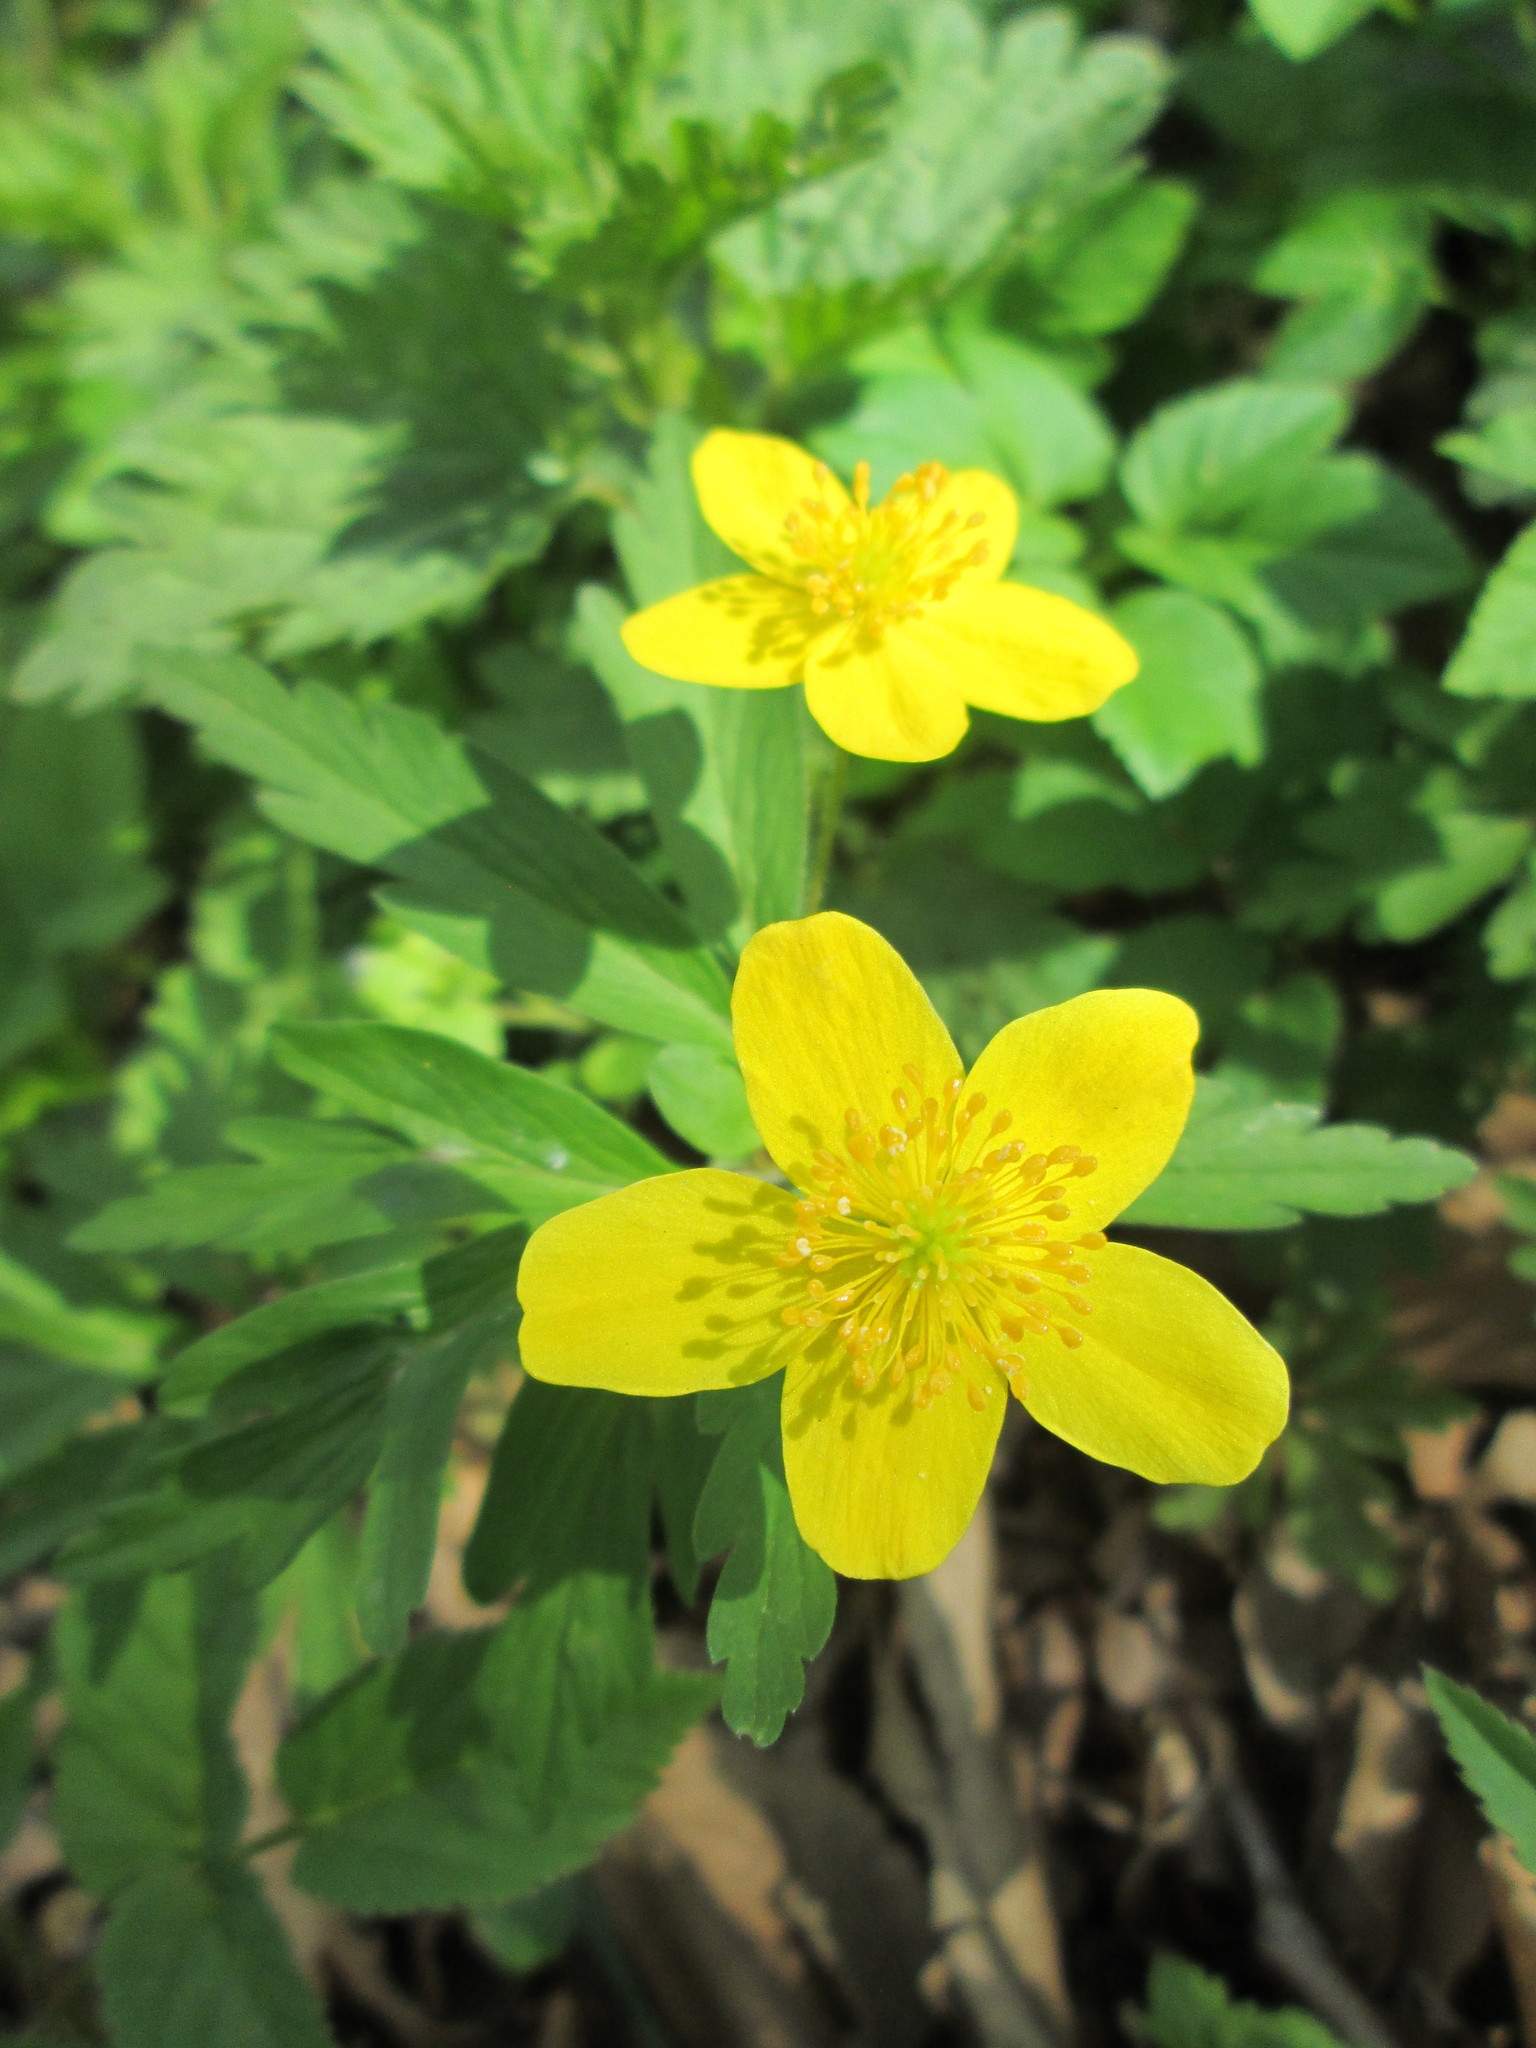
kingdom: Plantae
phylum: Tracheophyta
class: Magnoliopsida
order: Ranunculales
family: Ranunculaceae
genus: Anemone
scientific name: Anemone ranunculoides
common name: Yellow anemone
